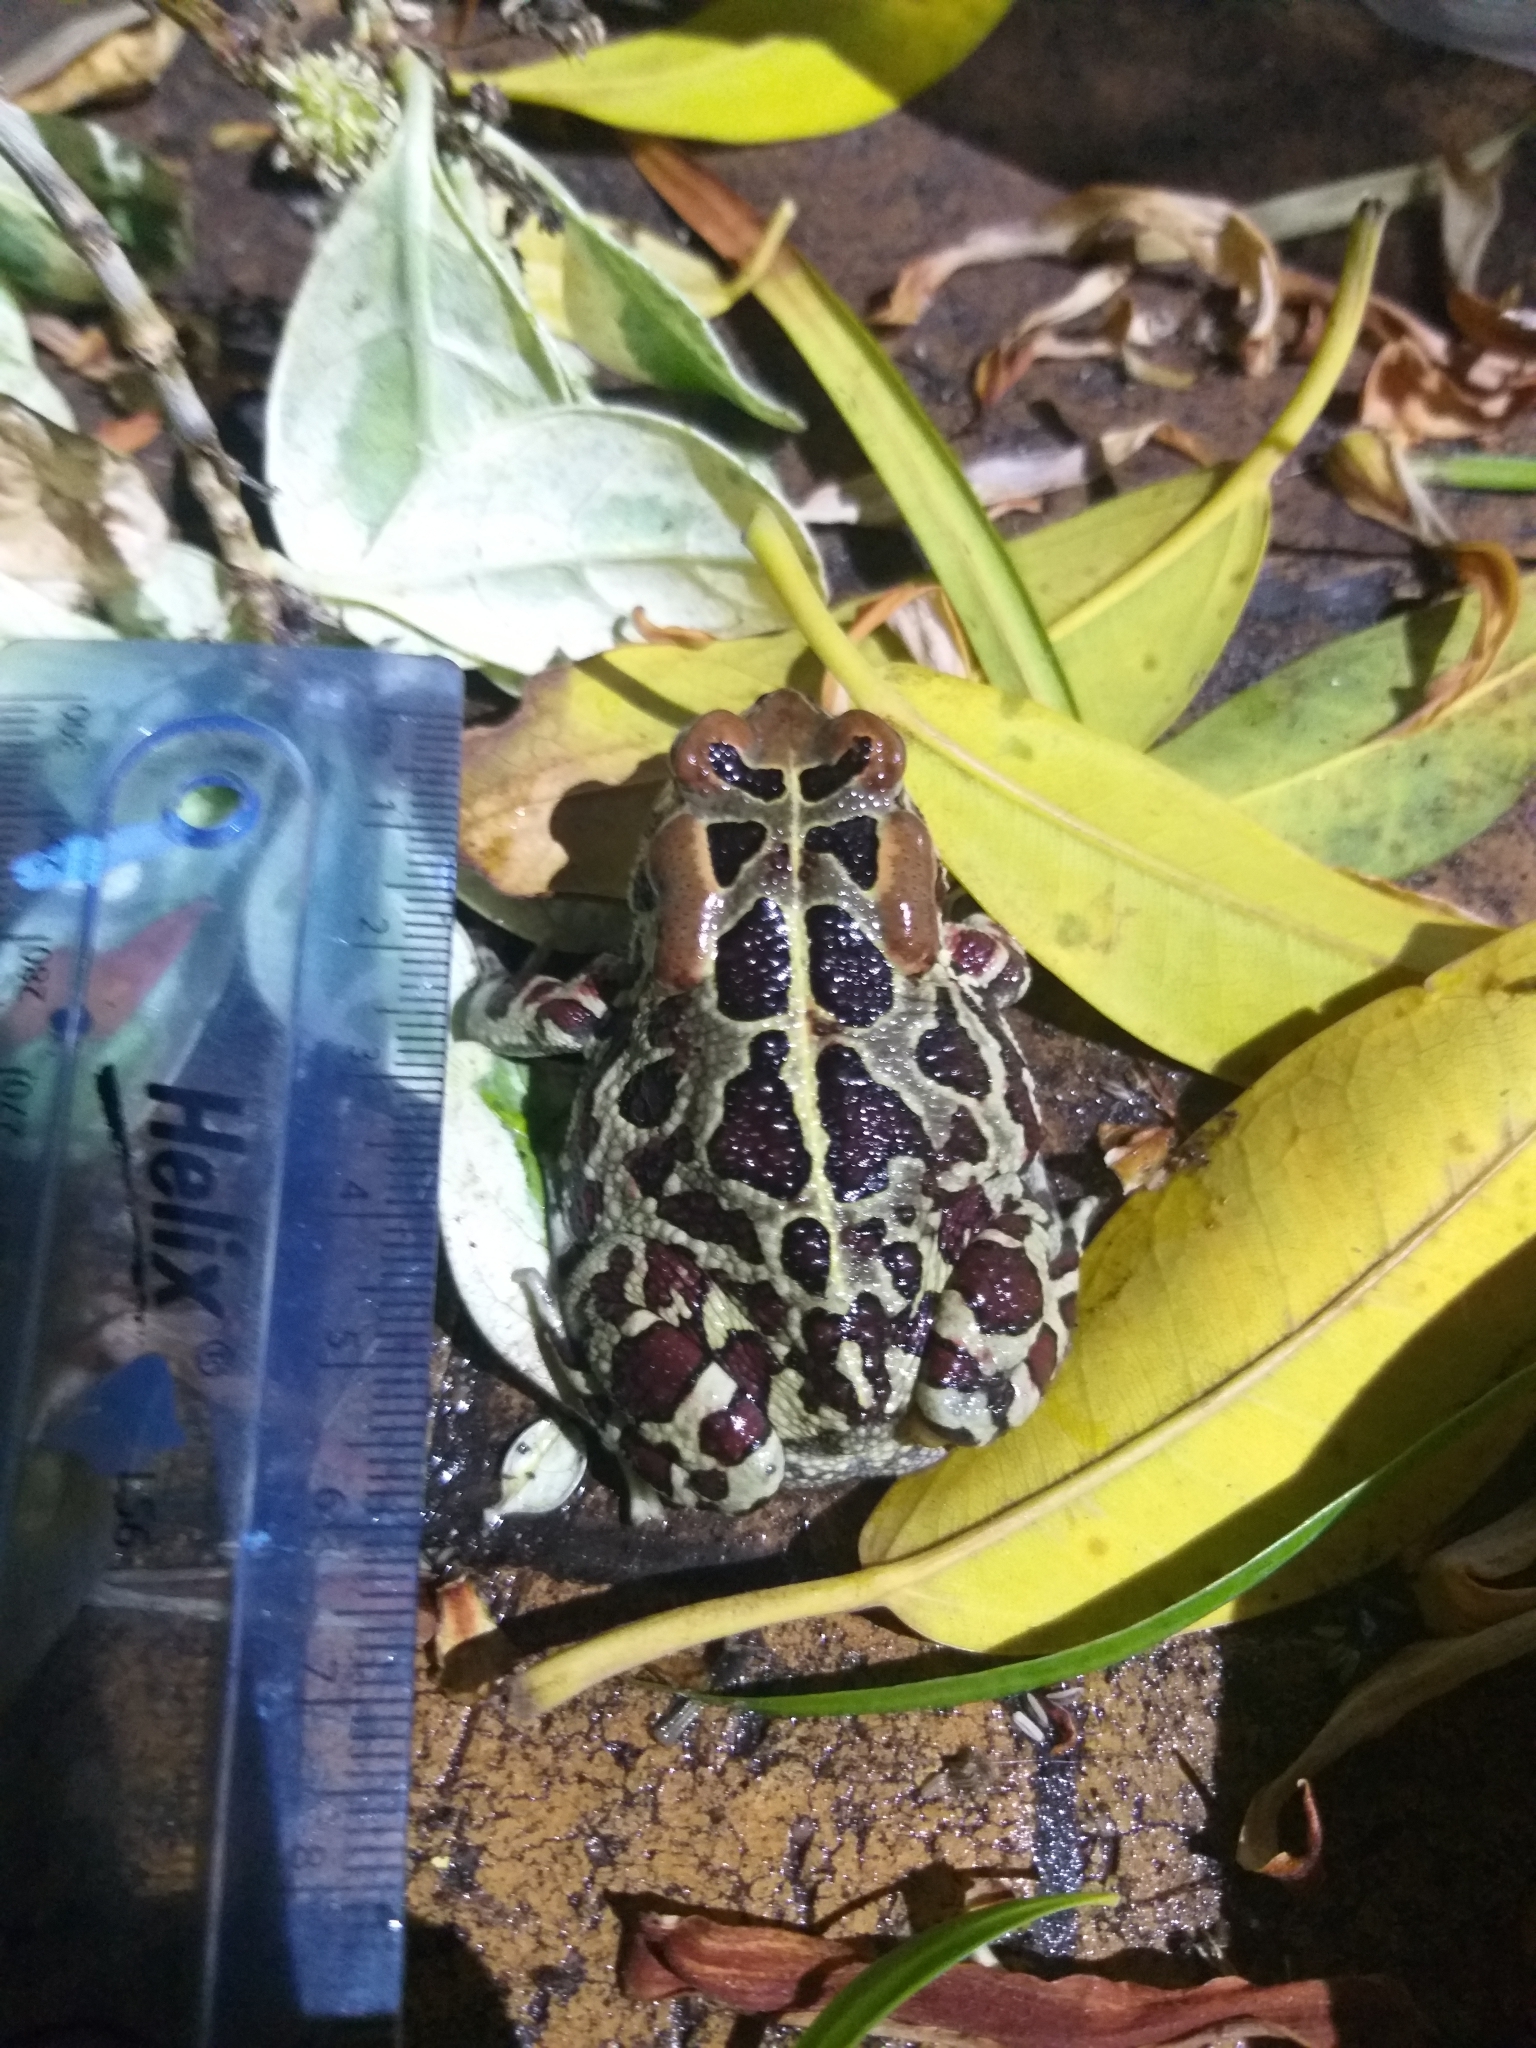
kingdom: Animalia
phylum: Chordata
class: Amphibia
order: Anura
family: Bufonidae
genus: Sclerophrys
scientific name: Sclerophrys pantherina
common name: Panther toad
